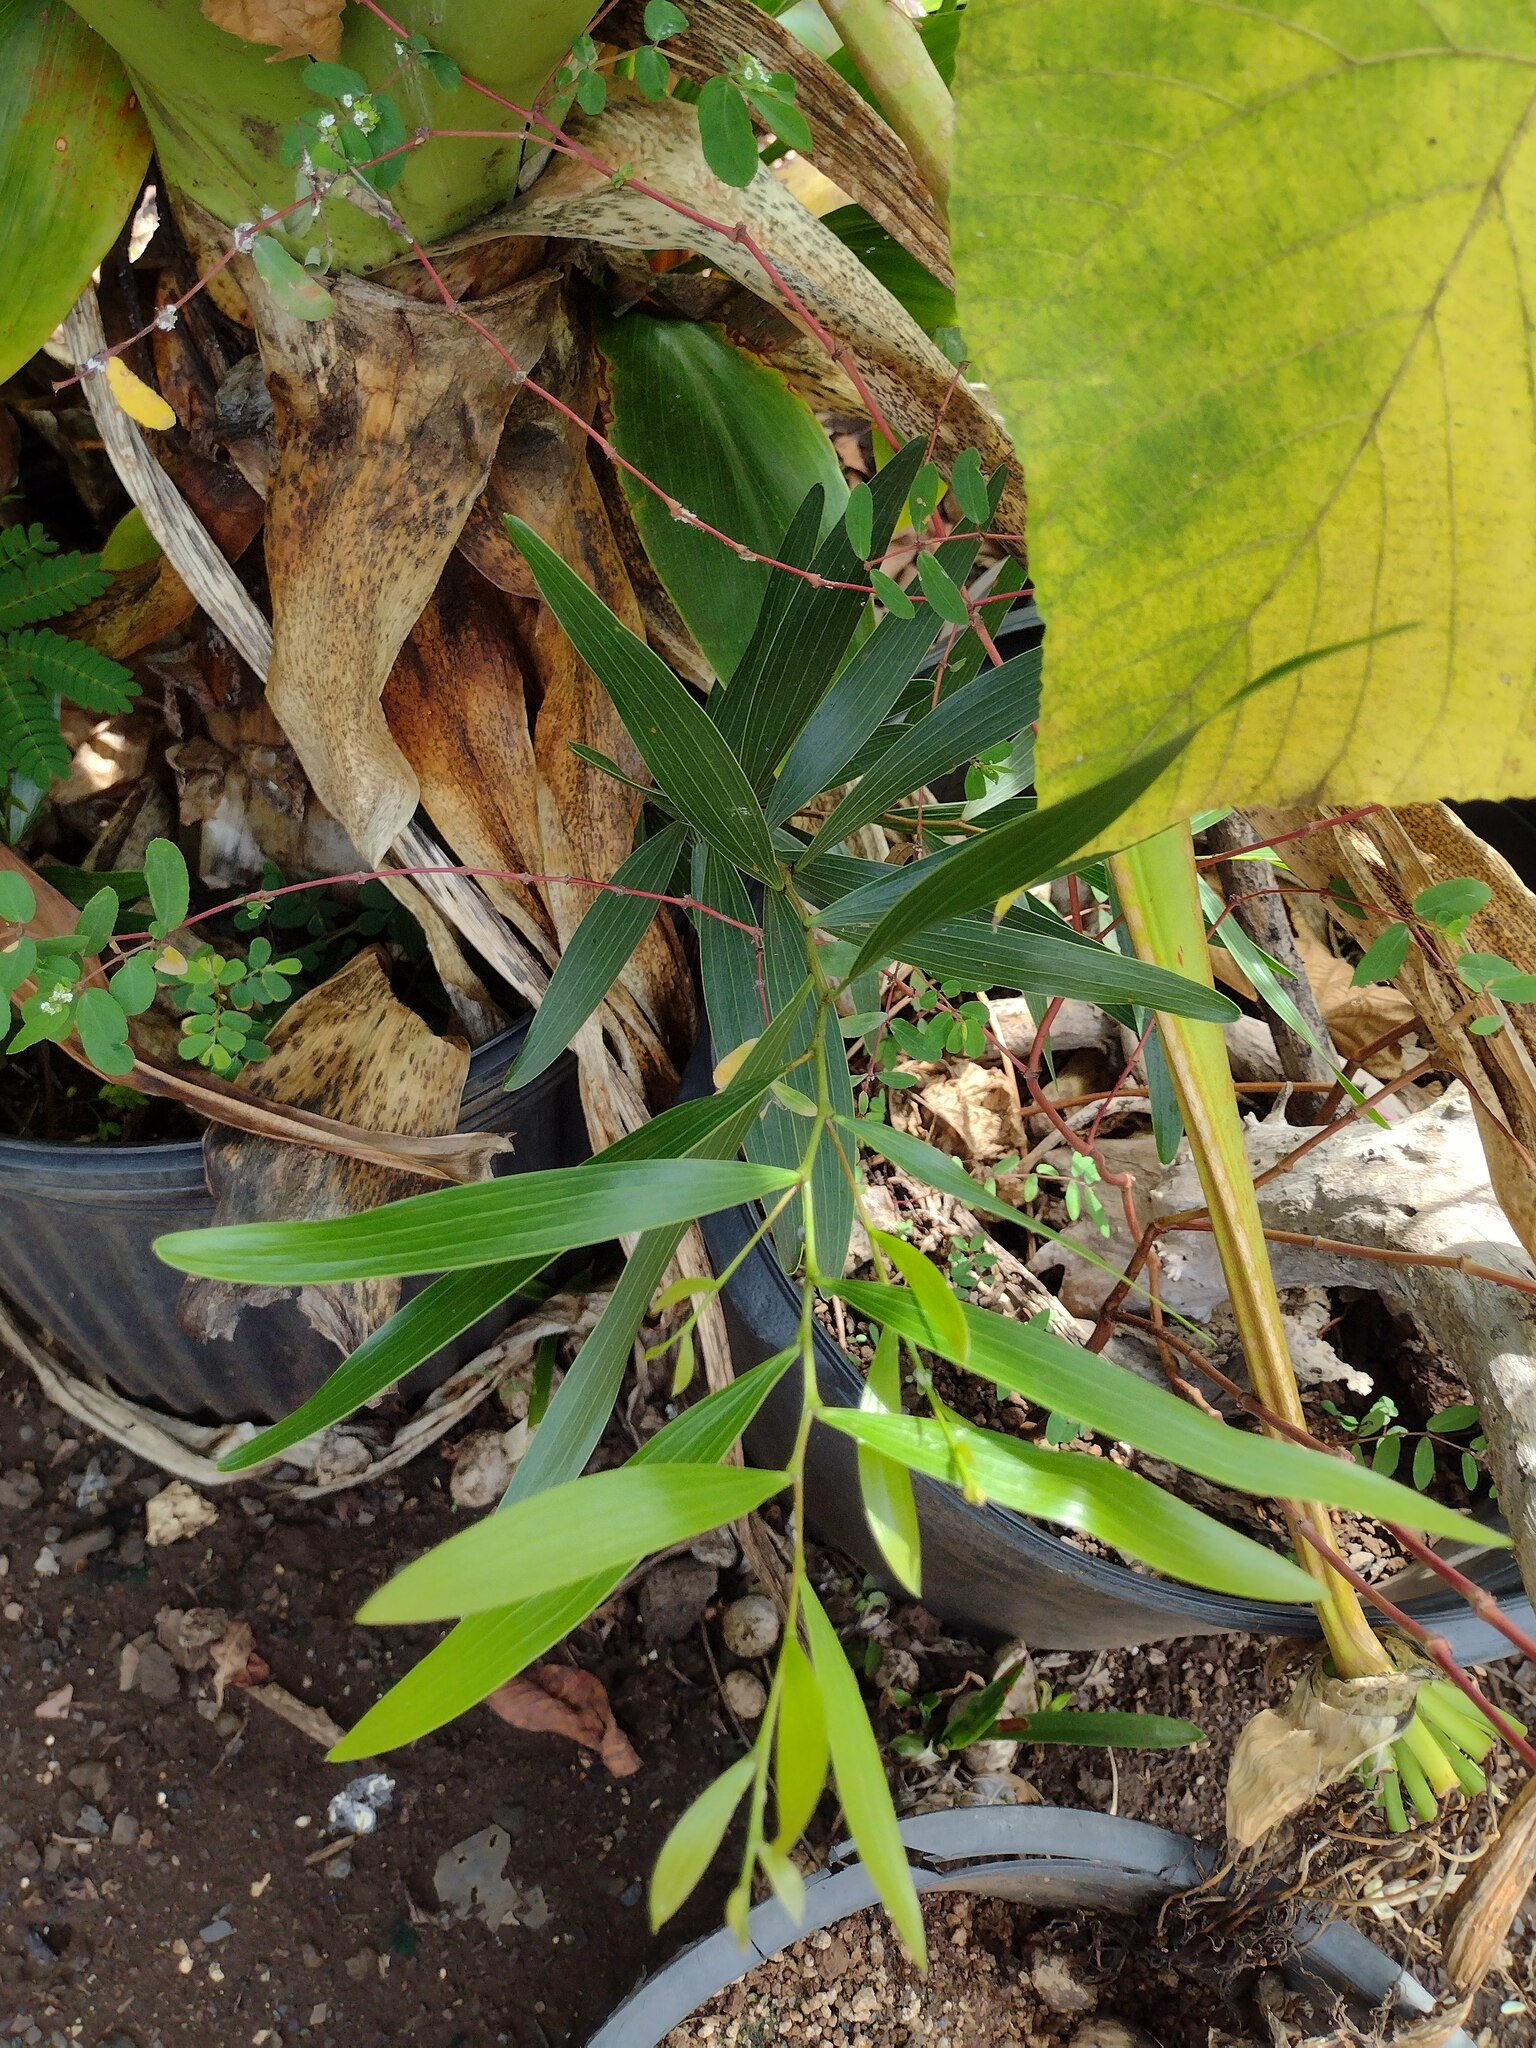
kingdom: Plantae
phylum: Tracheophyta
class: Magnoliopsida
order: Fabales
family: Fabaceae
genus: Acacia
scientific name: Acacia confusa
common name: Formosan koa
